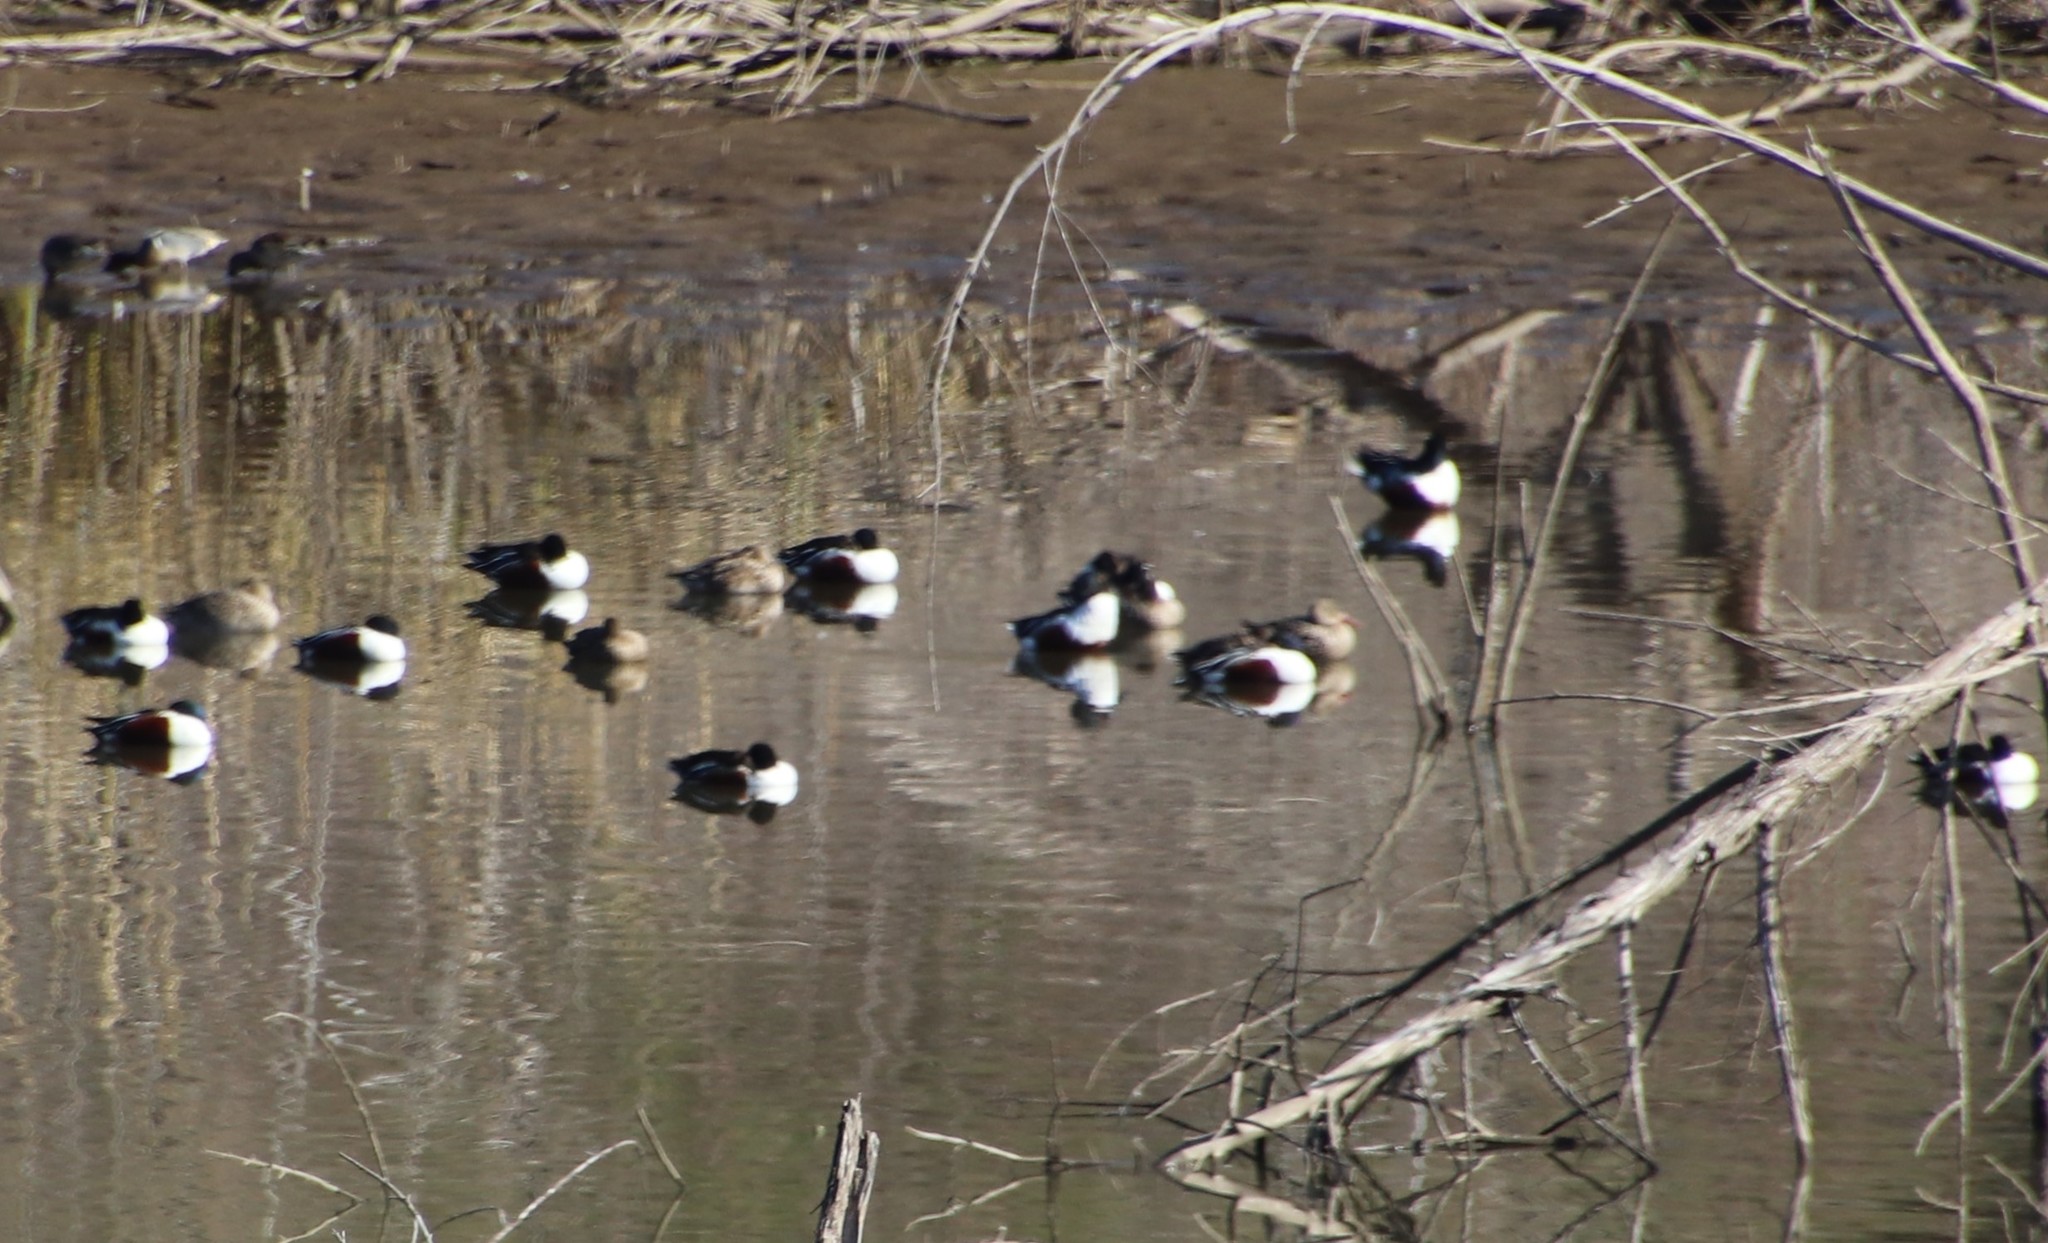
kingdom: Animalia
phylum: Chordata
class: Aves
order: Anseriformes
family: Anatidae
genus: Spatula
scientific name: Spatula clypeata
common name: Northern shoveler
